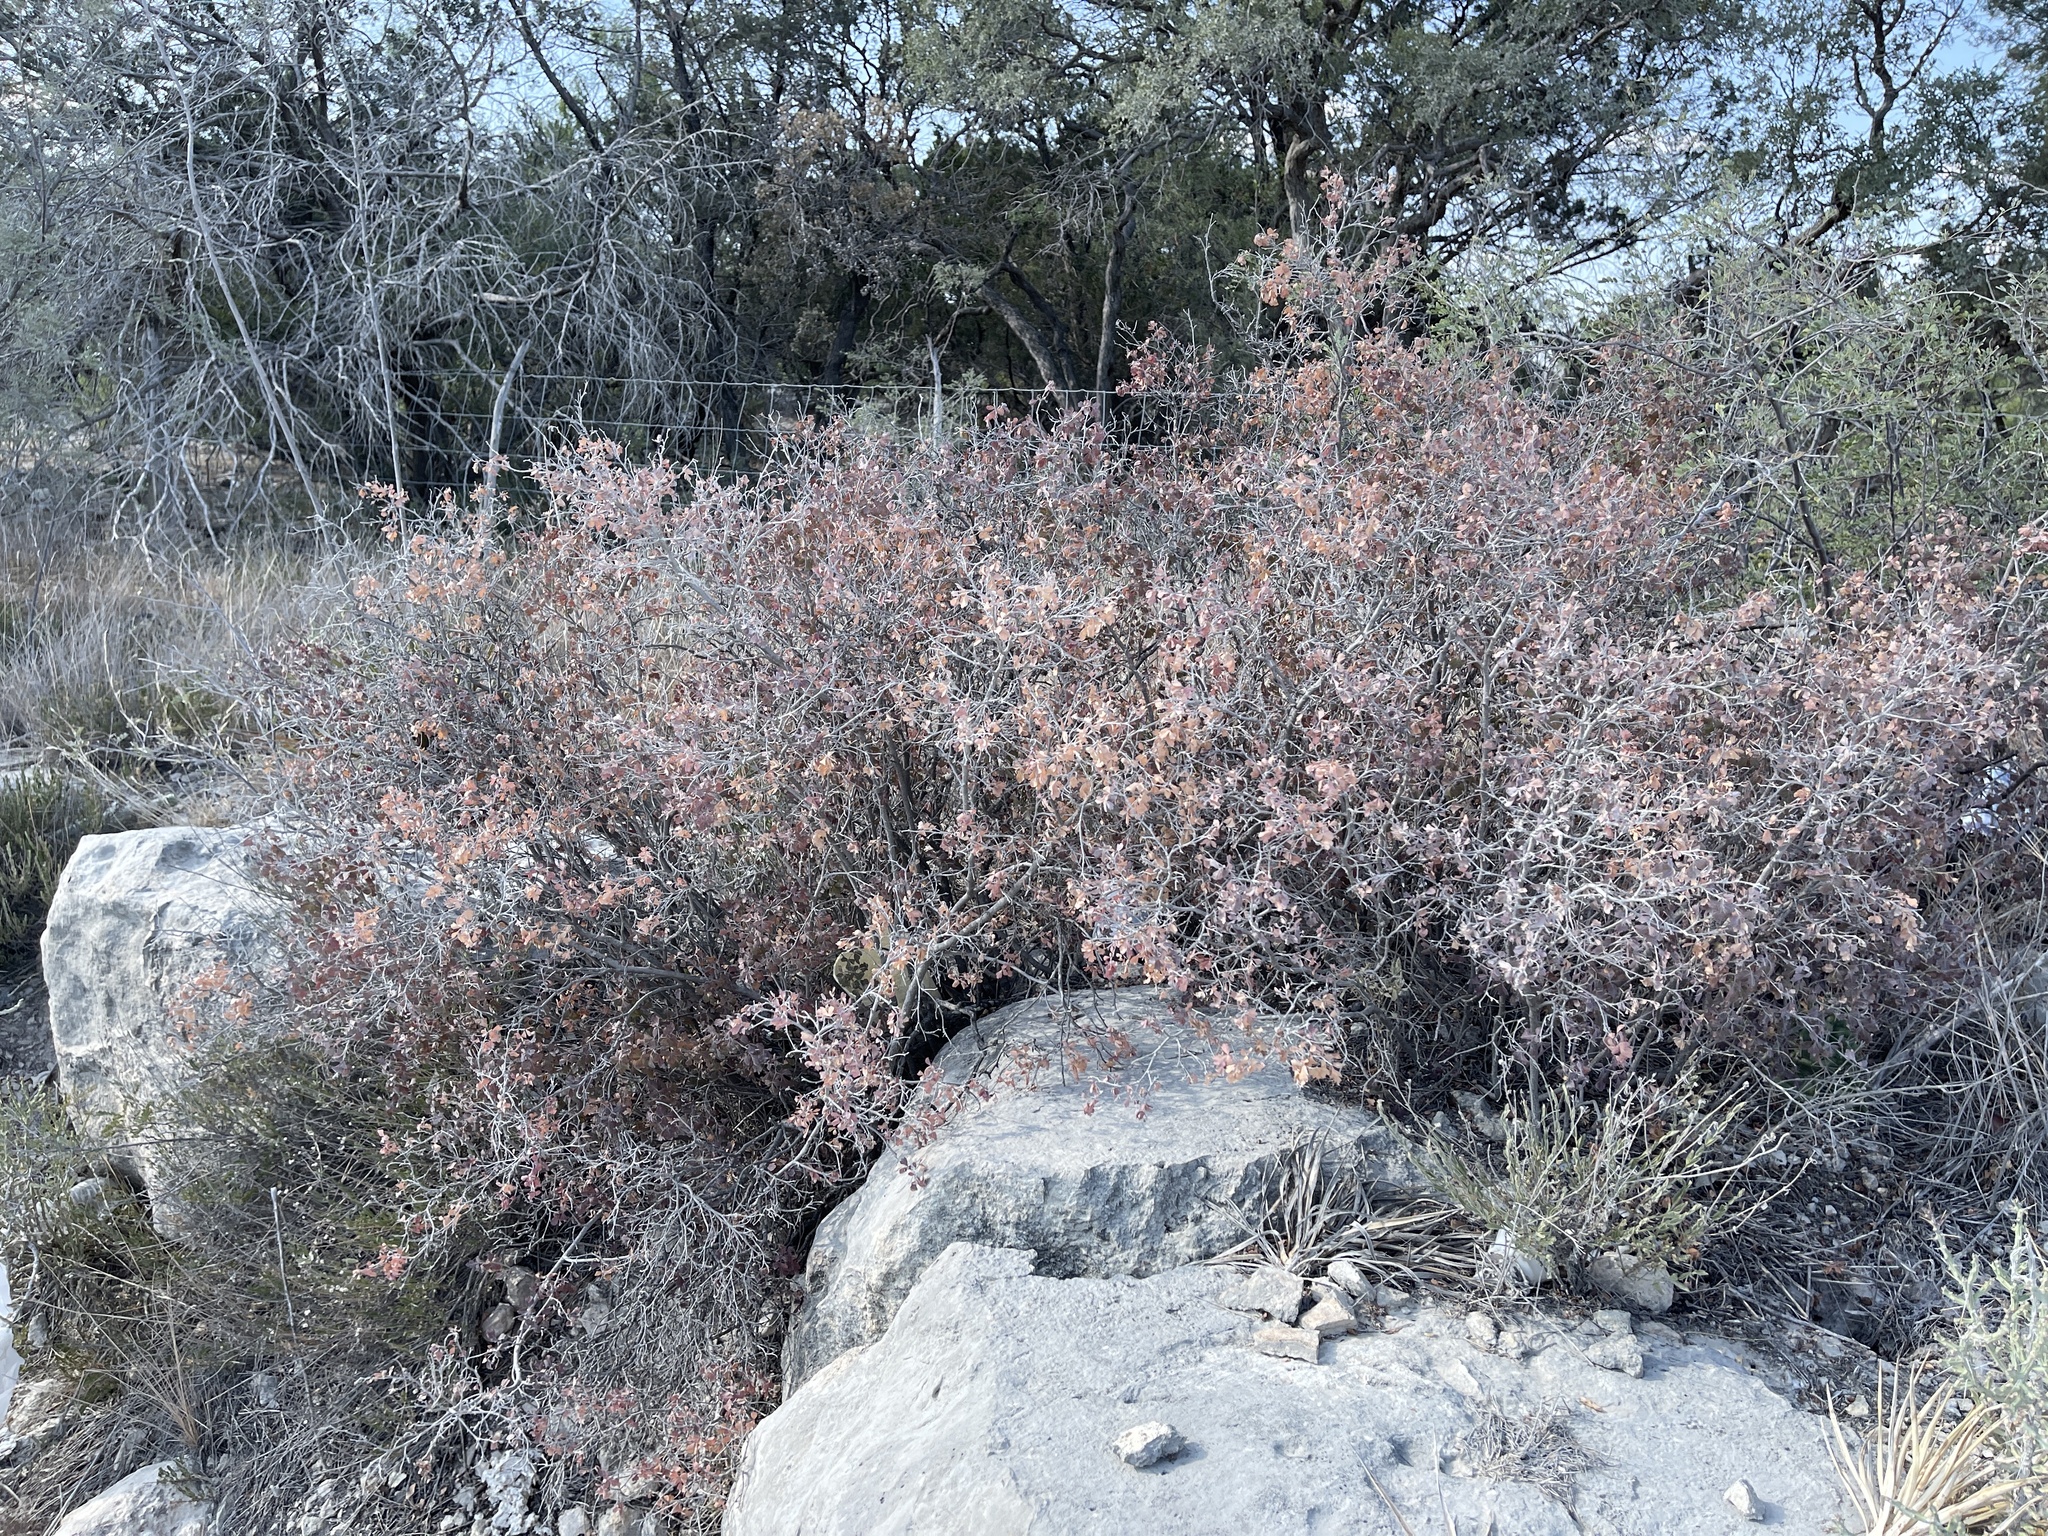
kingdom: Plantae
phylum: Tracheophyta
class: Magnoliopsida
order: Sapindales
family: Anacardiaceae
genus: Rhus
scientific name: Rhus aromatica
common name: Aromatic sumac
